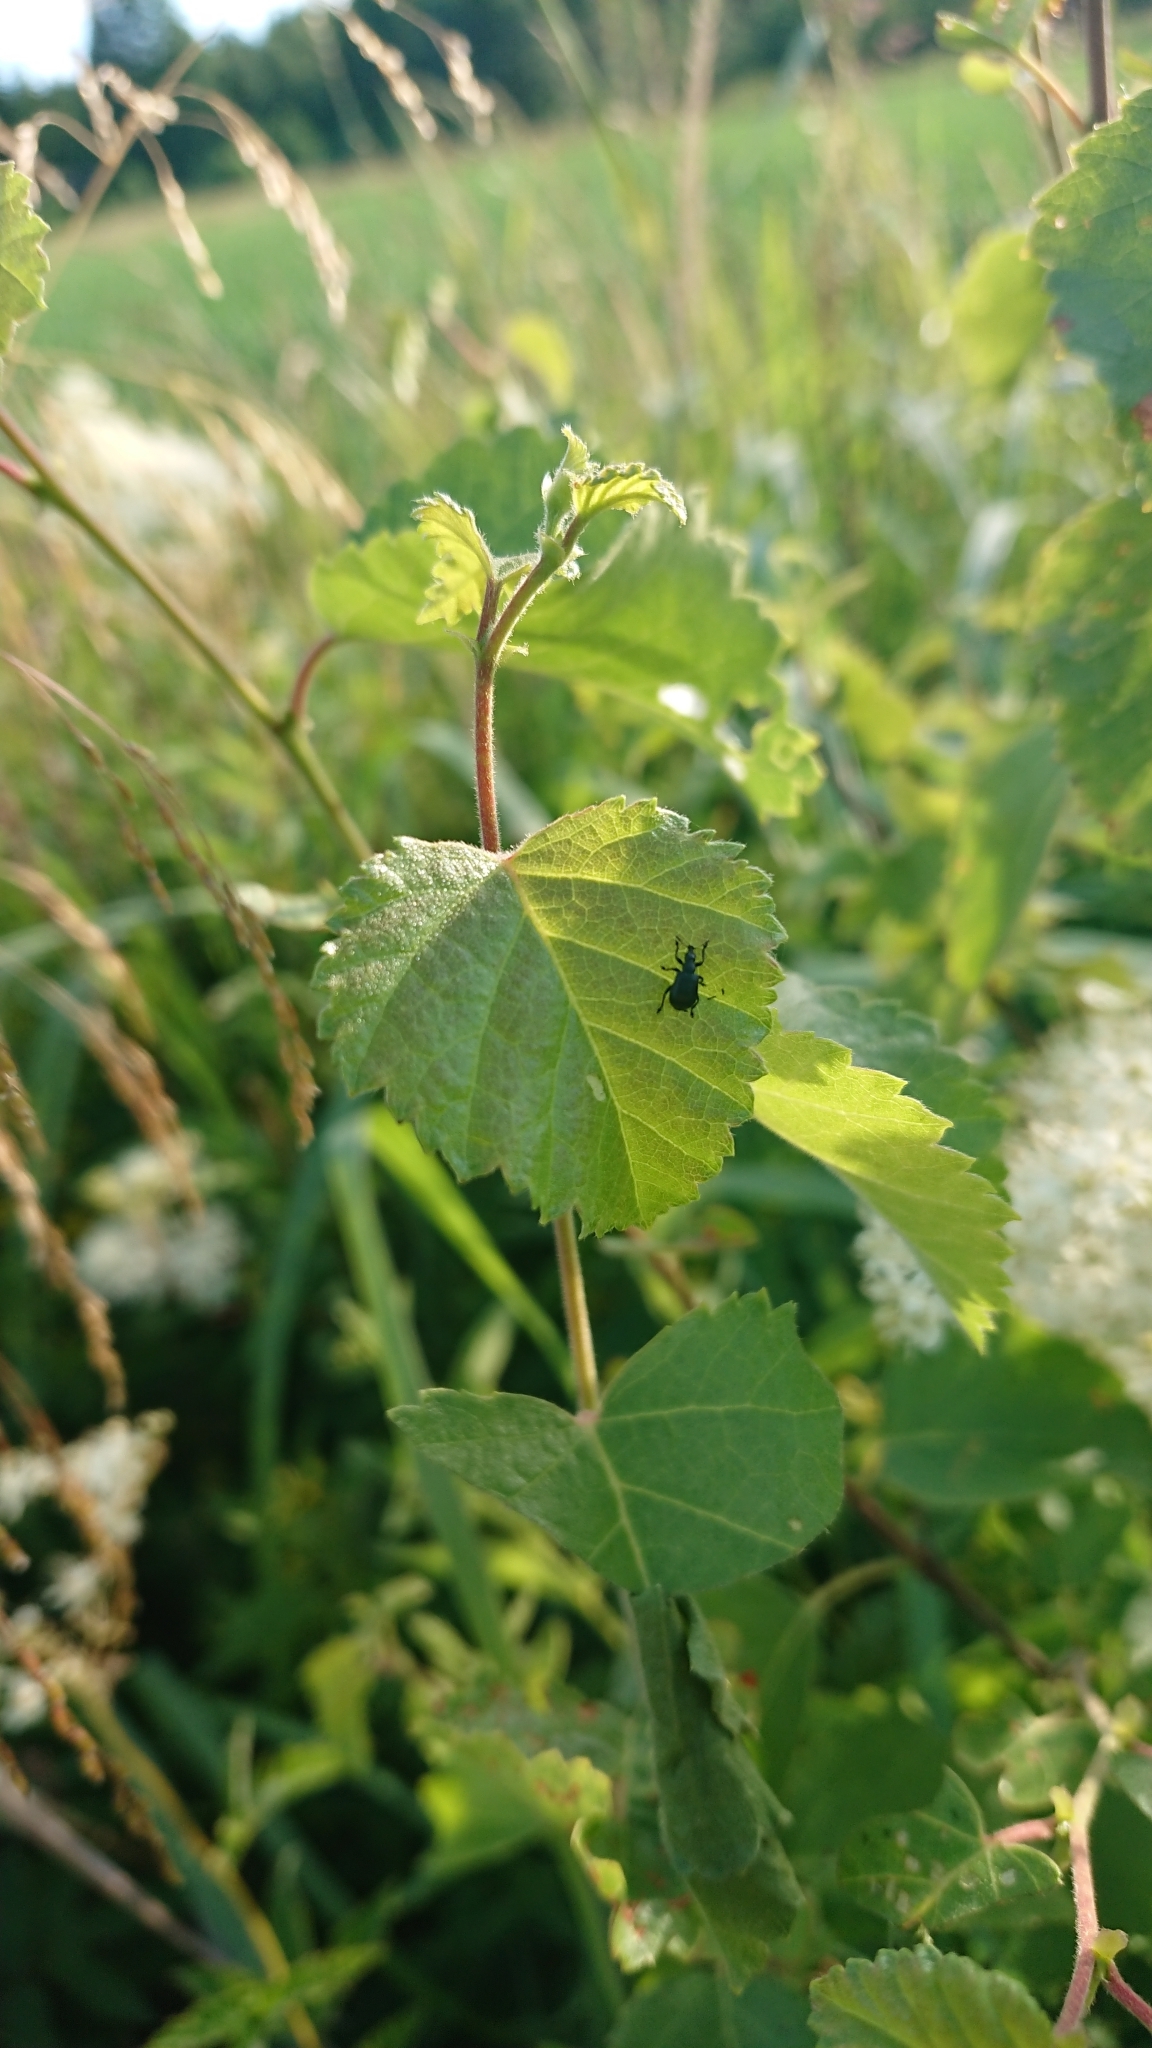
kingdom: Animalia
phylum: Arthropoda
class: Insecta
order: Coleoptera
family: Attelabidae
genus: Deporaus
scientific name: Deporaus betulae
